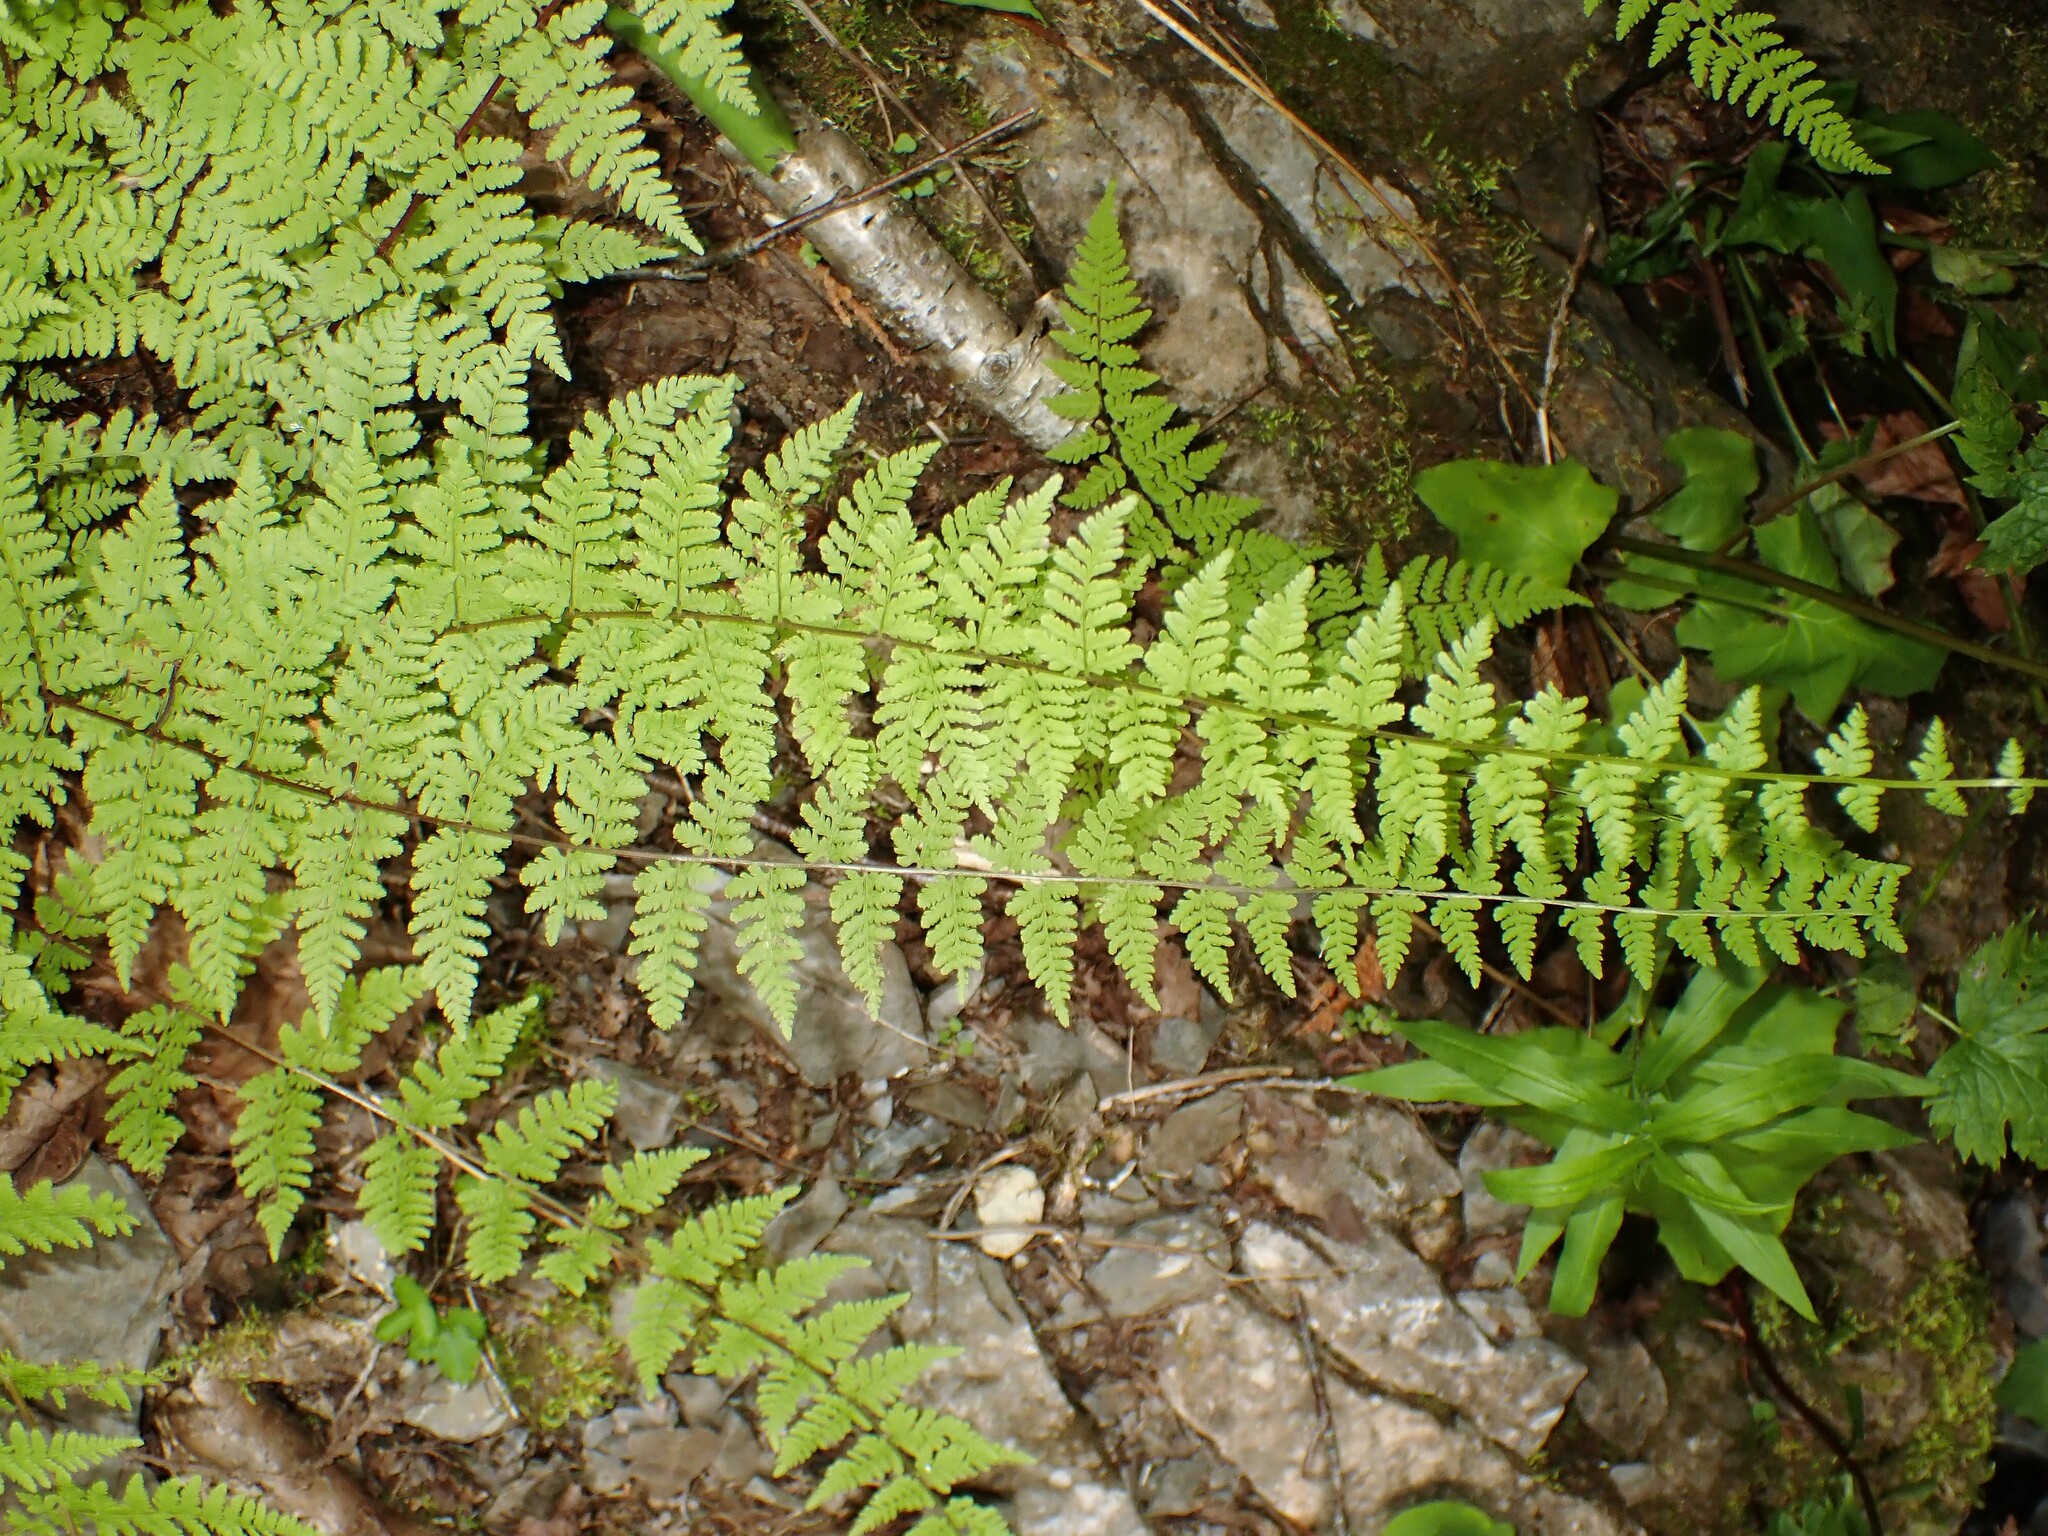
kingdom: Plantae
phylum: Tracheophyta
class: Polypodiopsida
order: Polypodiales
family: Cystopteridaceae
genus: Cystopteris
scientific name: Cystopteris bulbifera
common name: Bulblet bladder fern
